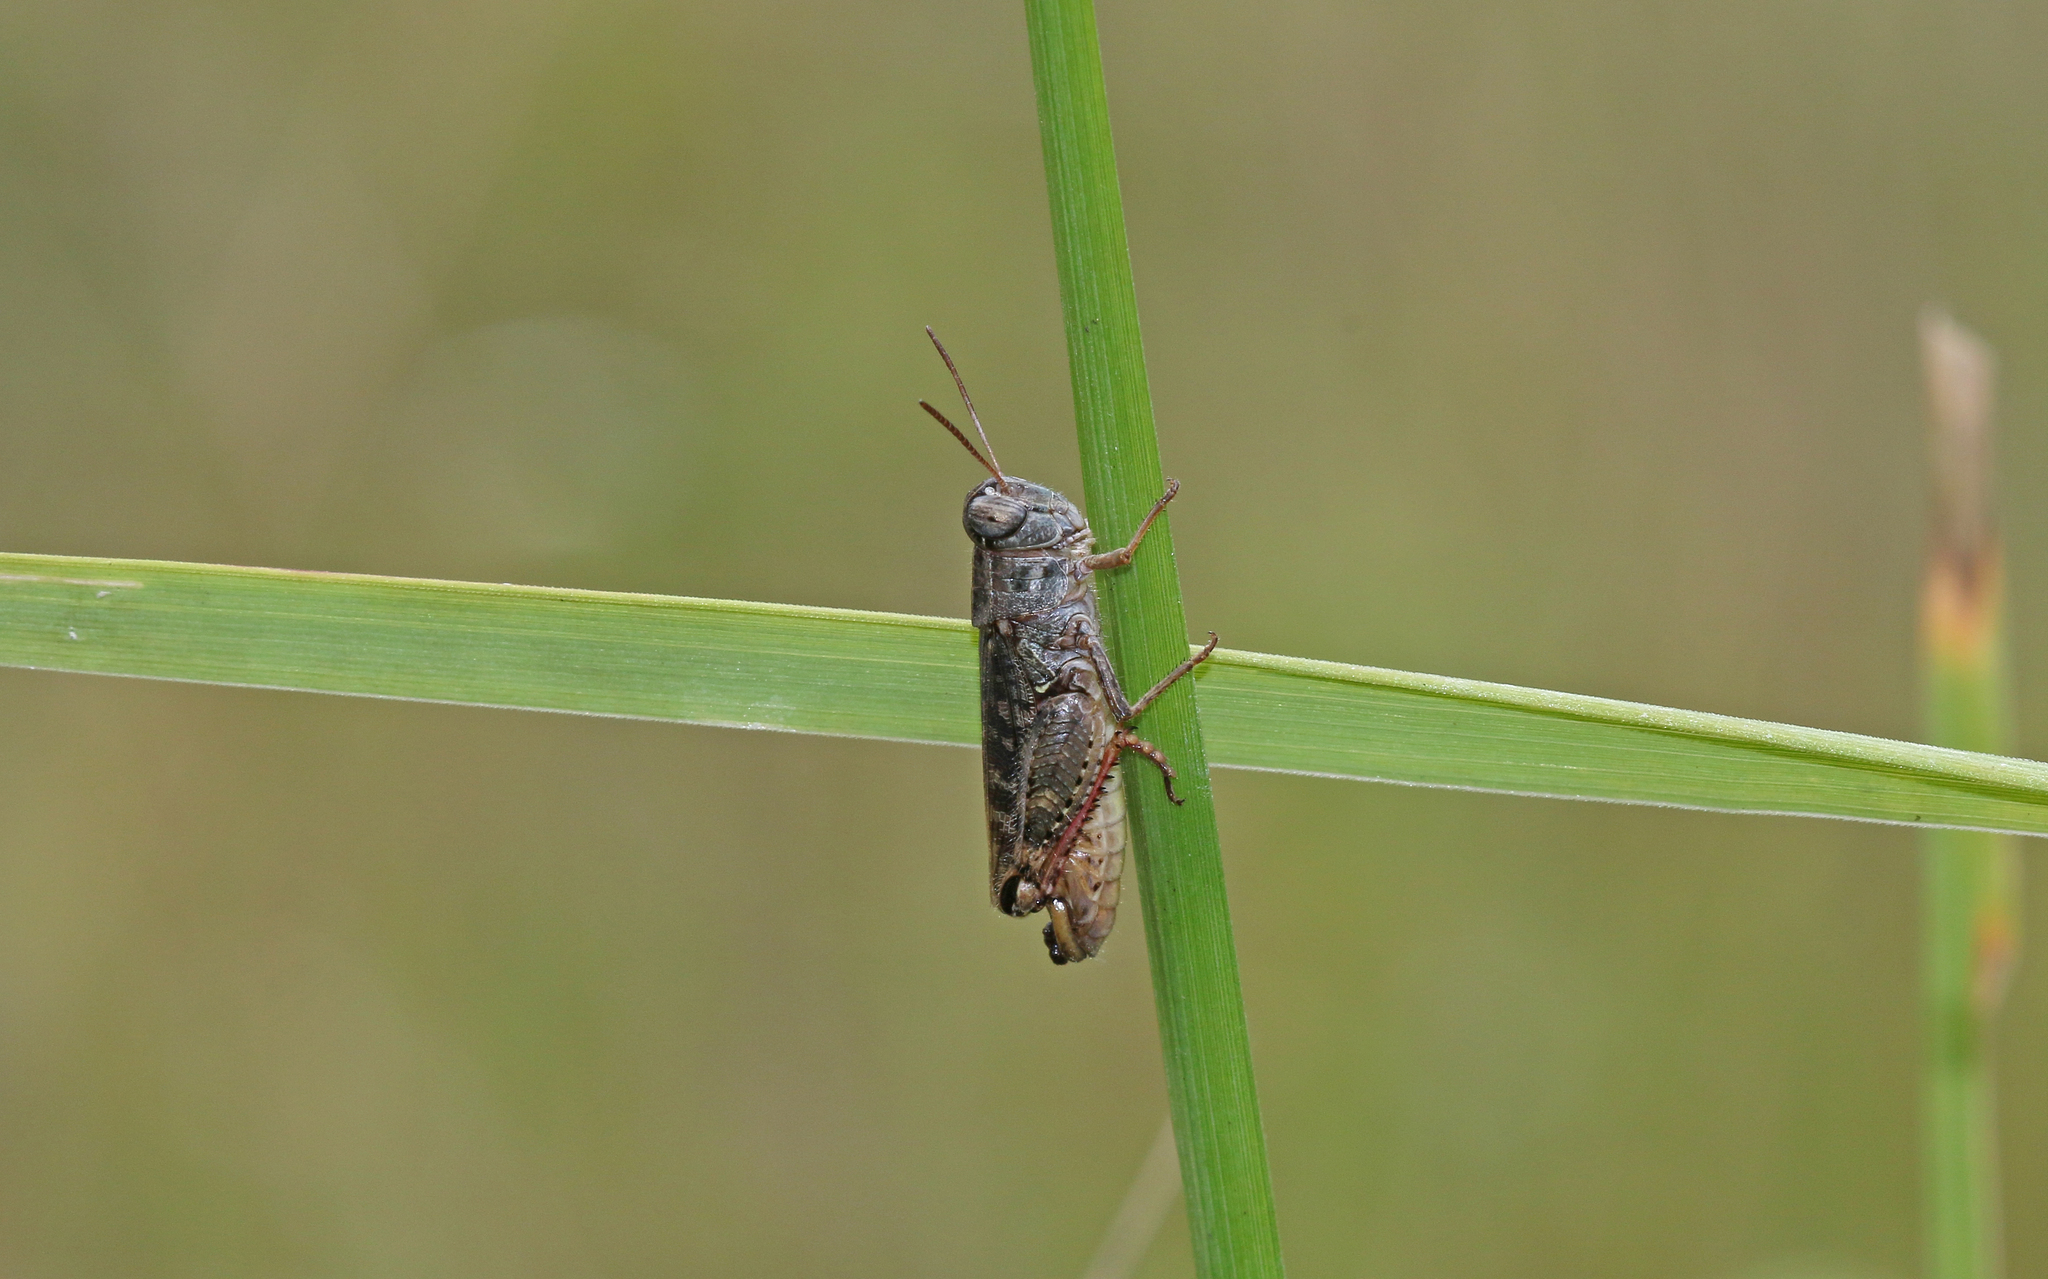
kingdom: Animalia
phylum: Arthropoda
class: Insecta
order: Orthoptera
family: Acrididae
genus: Calliptamus
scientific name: Calliptamus italicus
